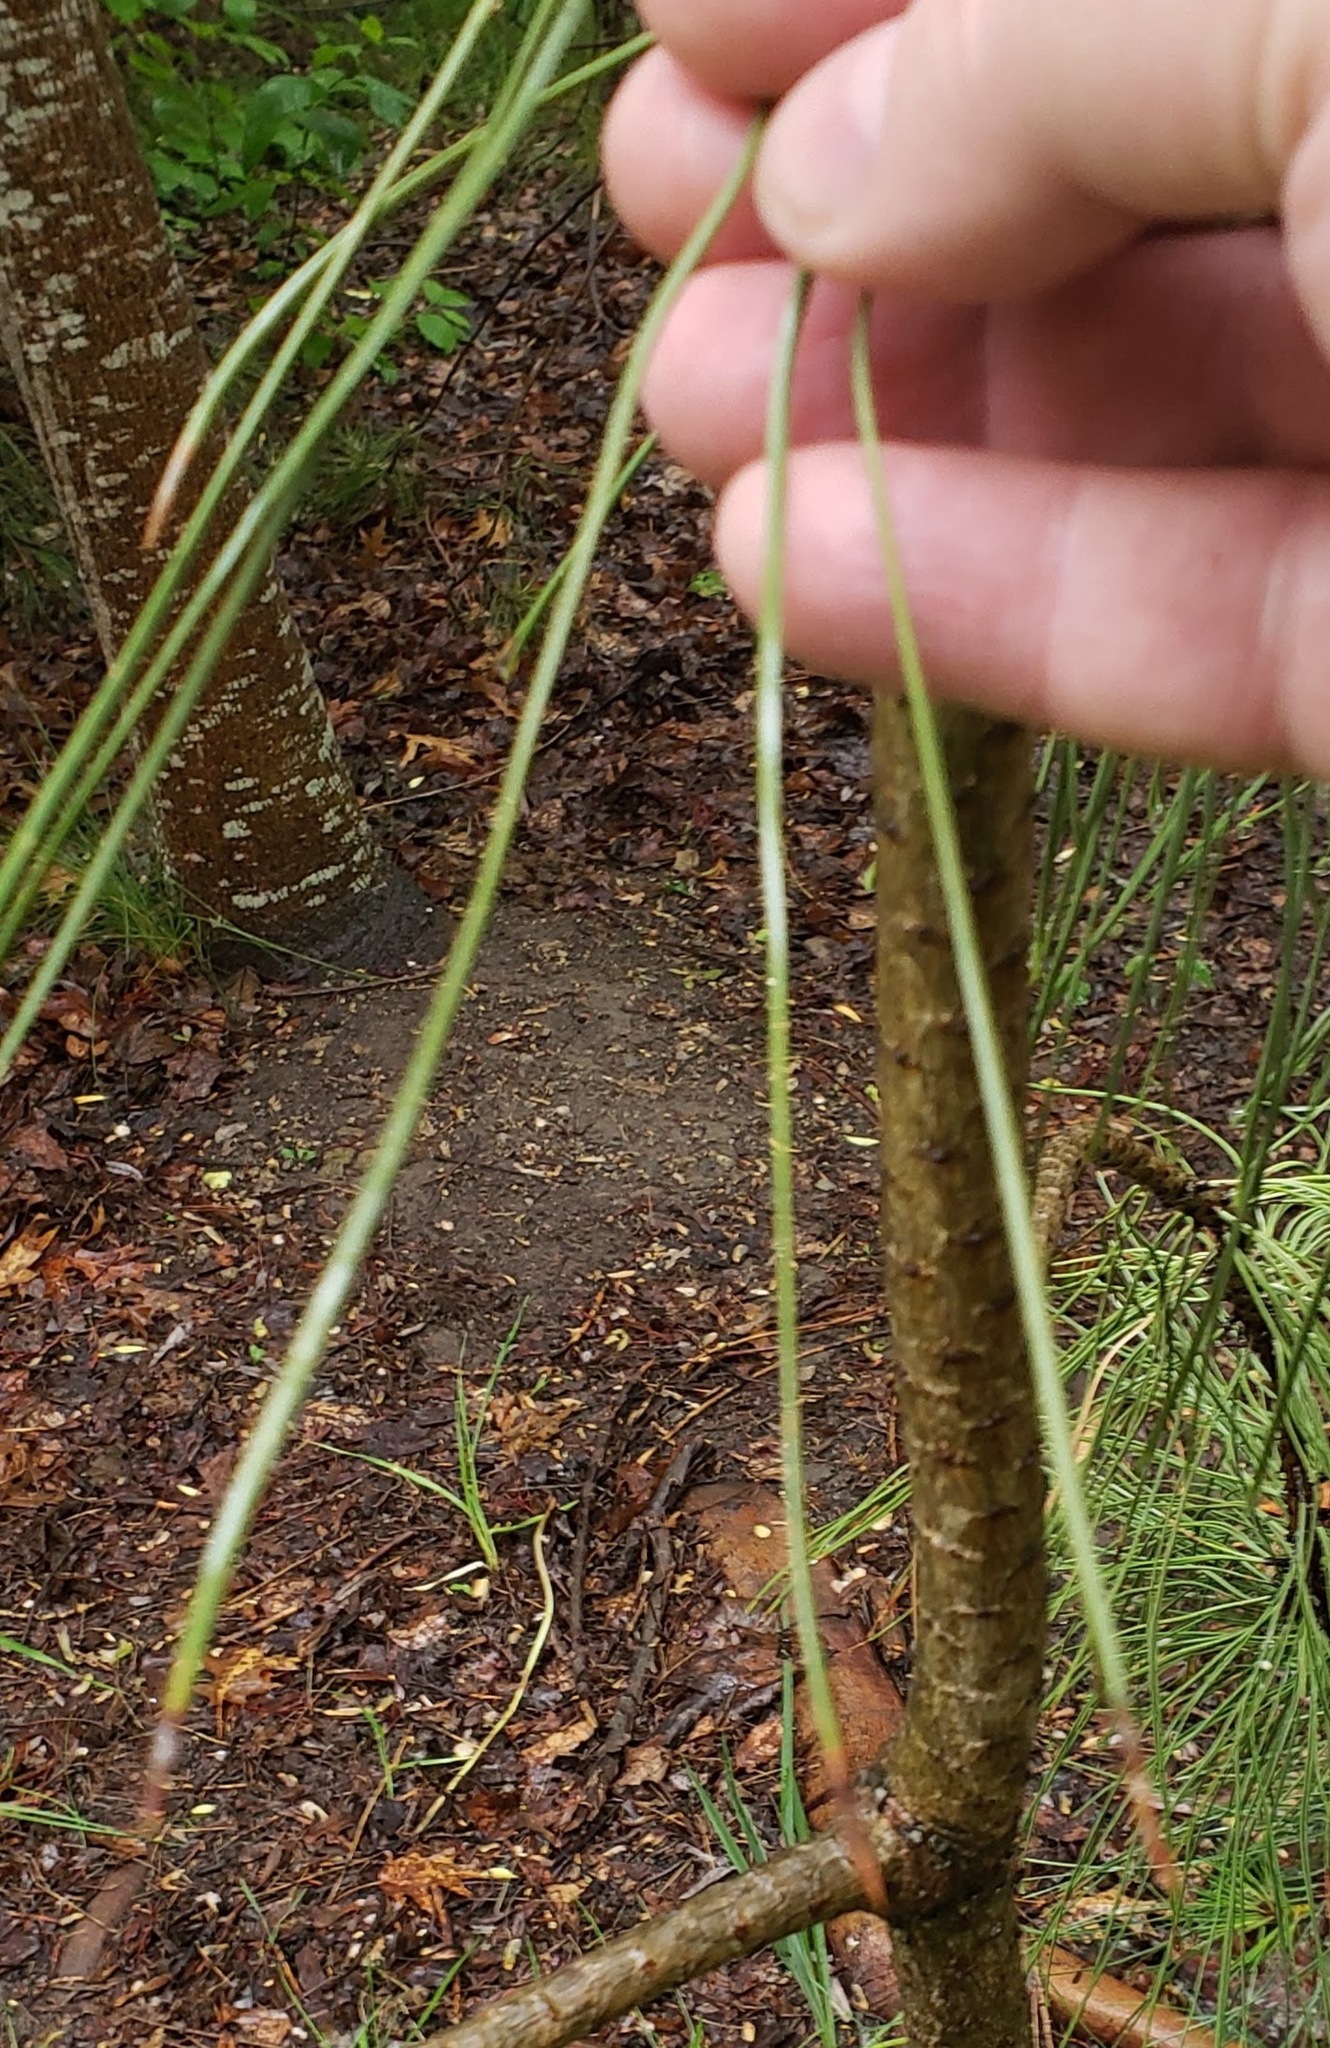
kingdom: Plantae
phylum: Tracheophyta
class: Pinopsida
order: Pinales
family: Pinaceae
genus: Pinus
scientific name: Pinus ponderosa
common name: Western yellow-pine
